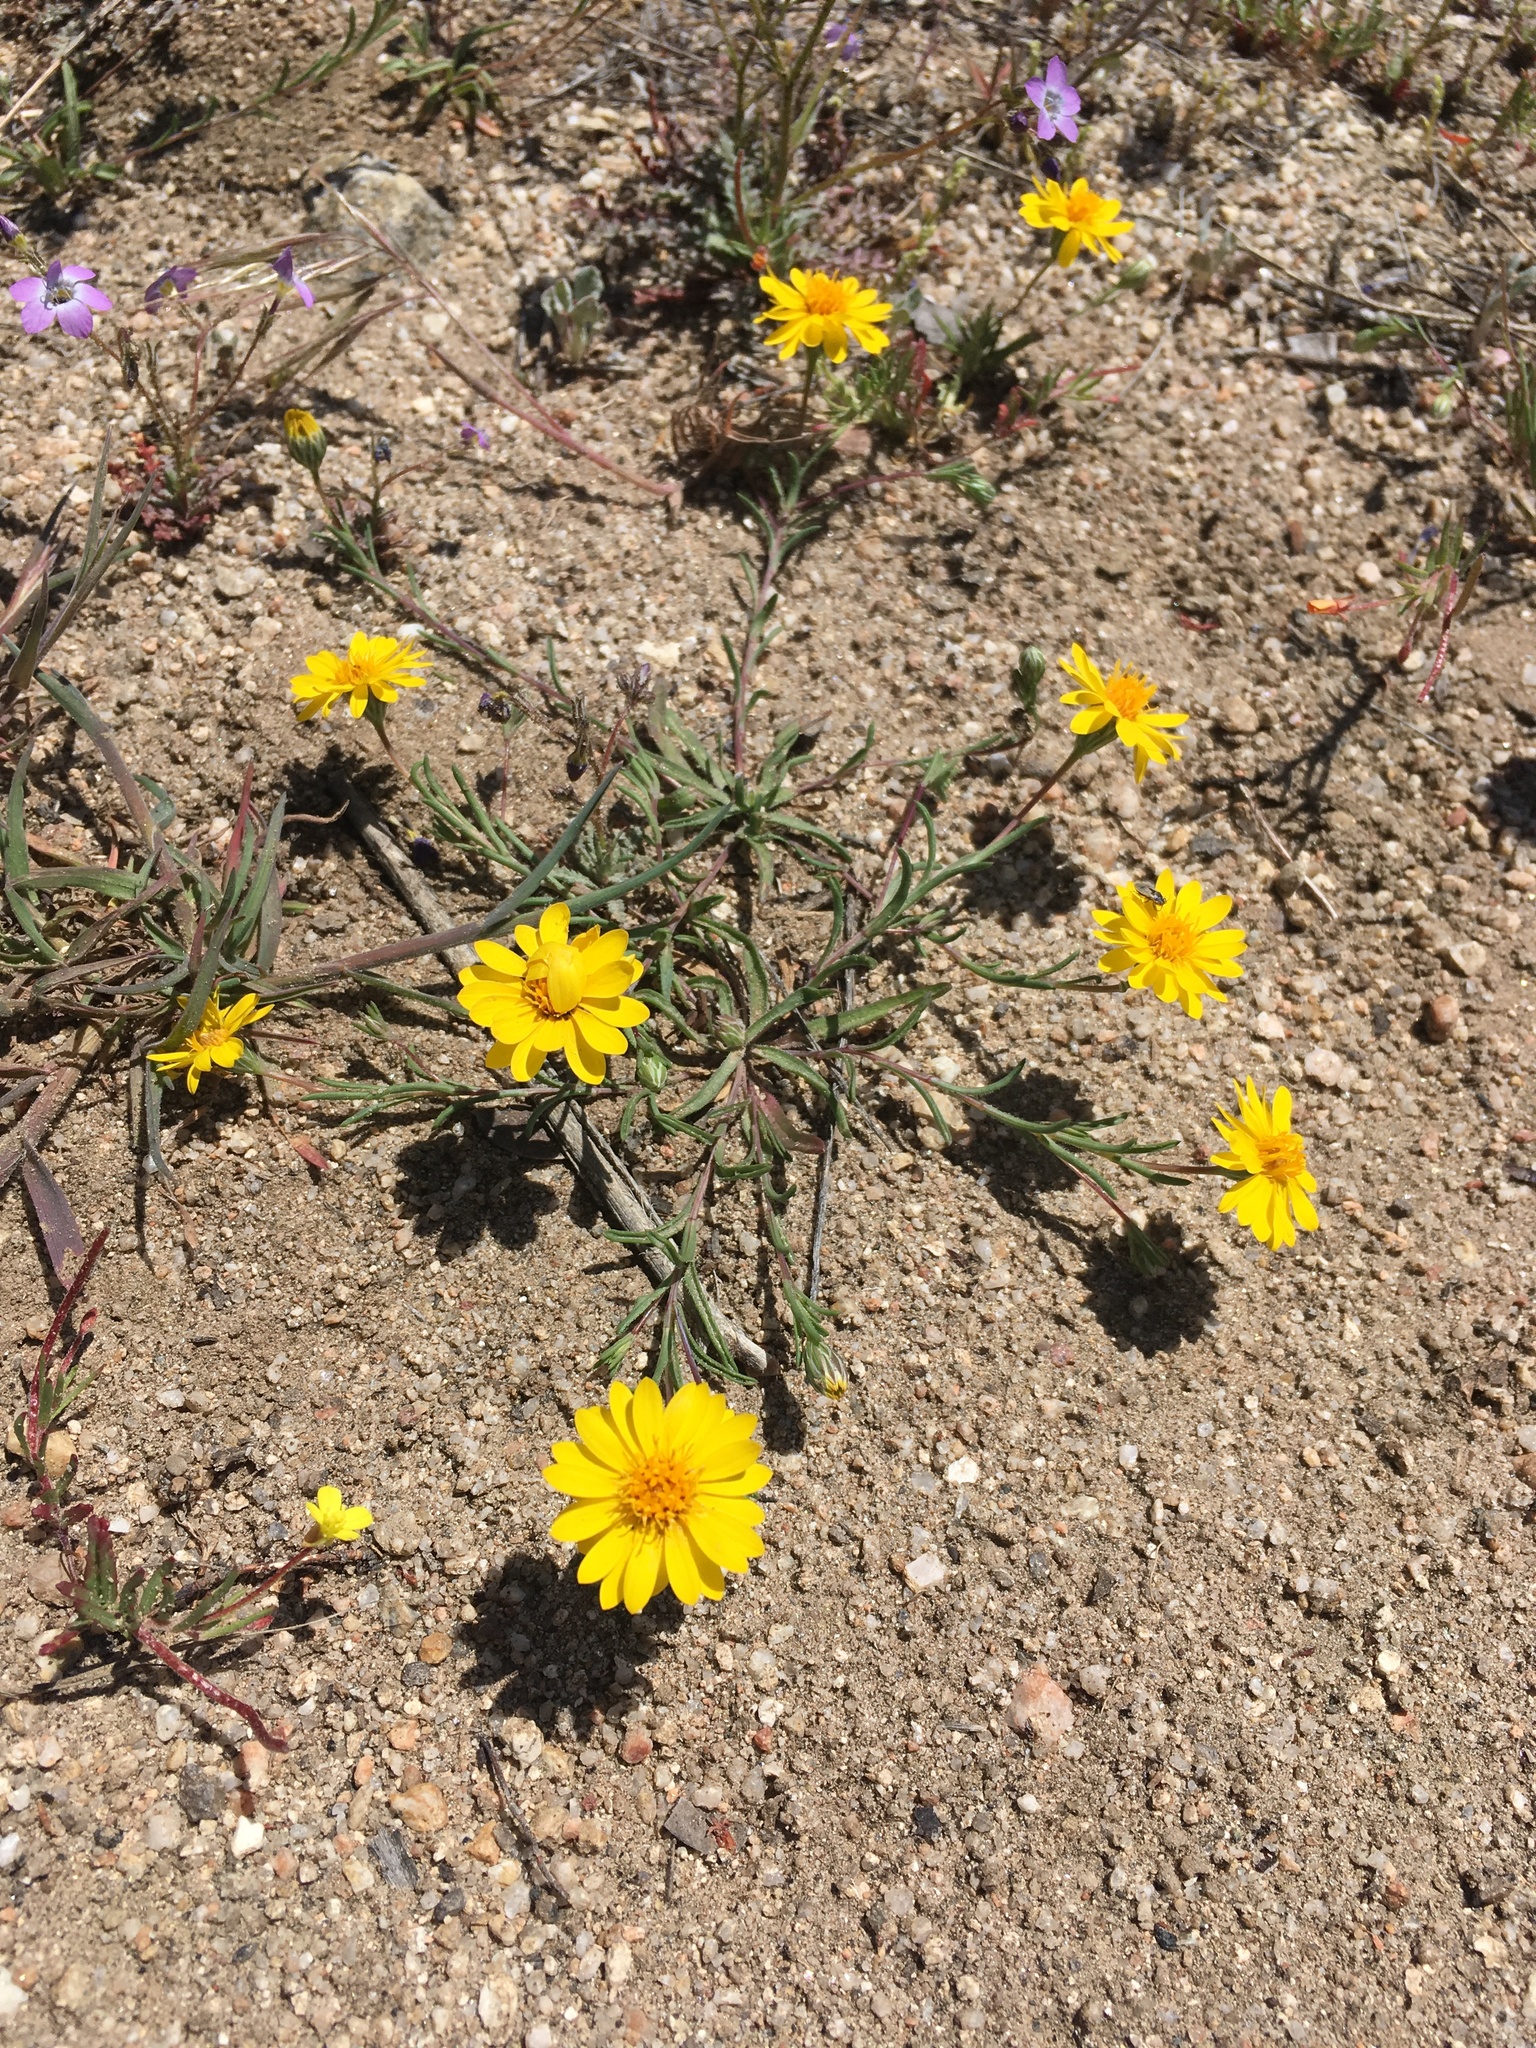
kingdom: Plantae
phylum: Tracheophyta
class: Magnoliopsida
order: Asterales
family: Asteraceae
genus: Pentachaeta
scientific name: Pentachaeta aurea
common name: Golden-ray pentachaeta
